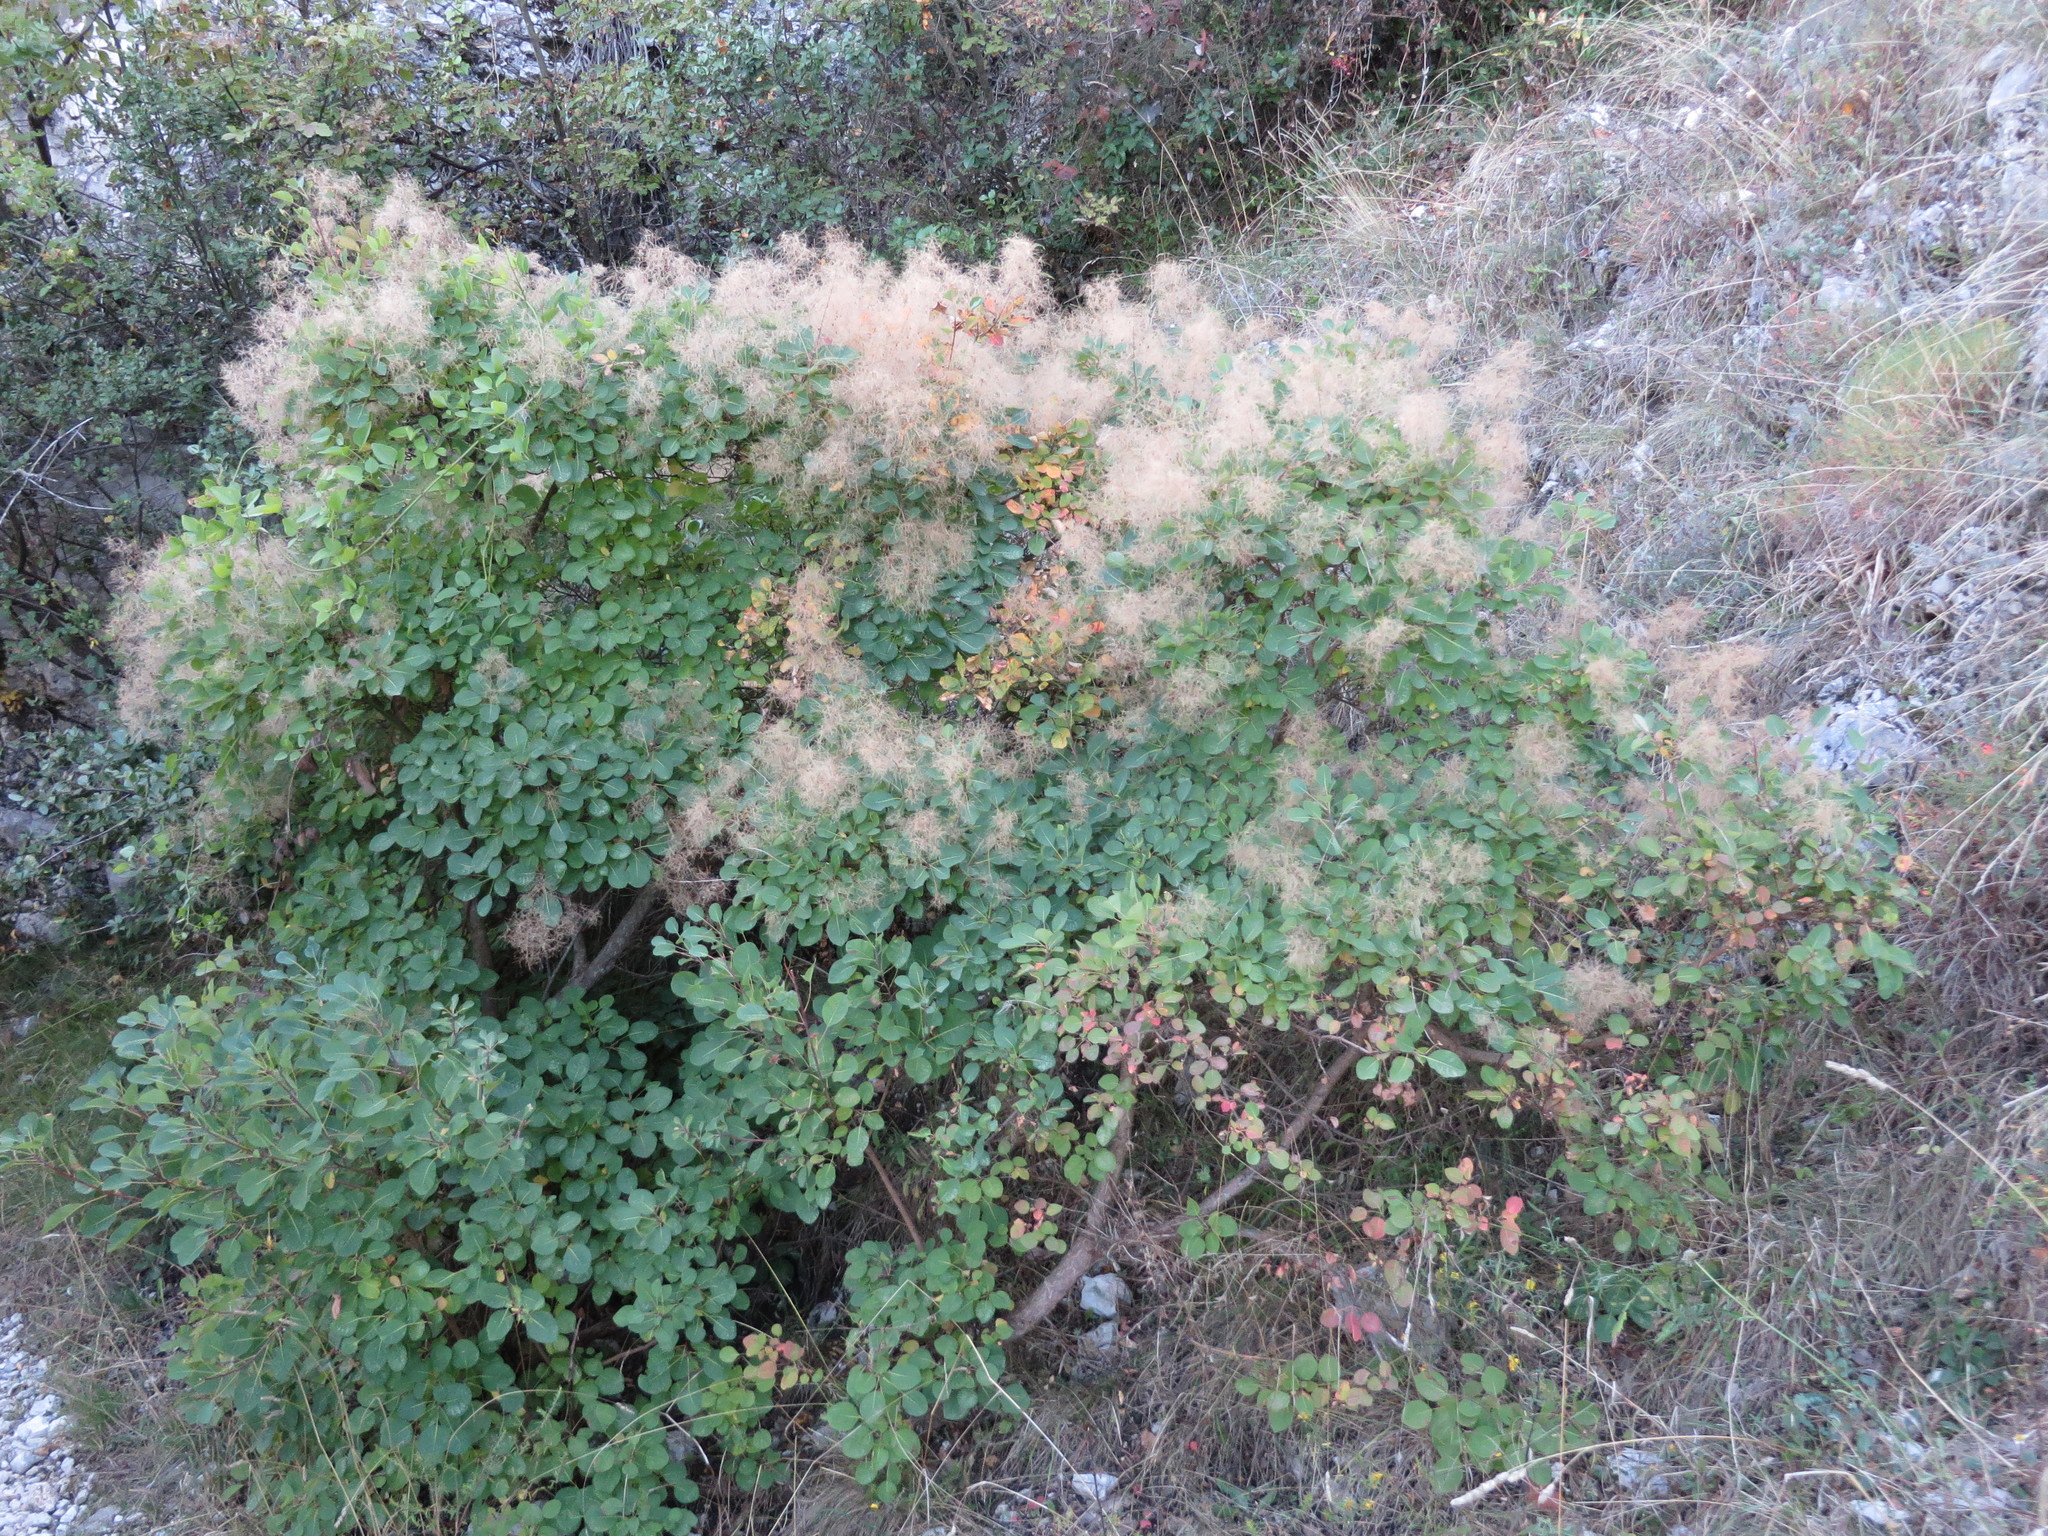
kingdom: Plantae
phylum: Tracheophyta
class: Magnoliopsida
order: Sapindales
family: Anacardiaceae
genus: Cotinus
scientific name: Cotinus coggygria
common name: Smoke-tree
